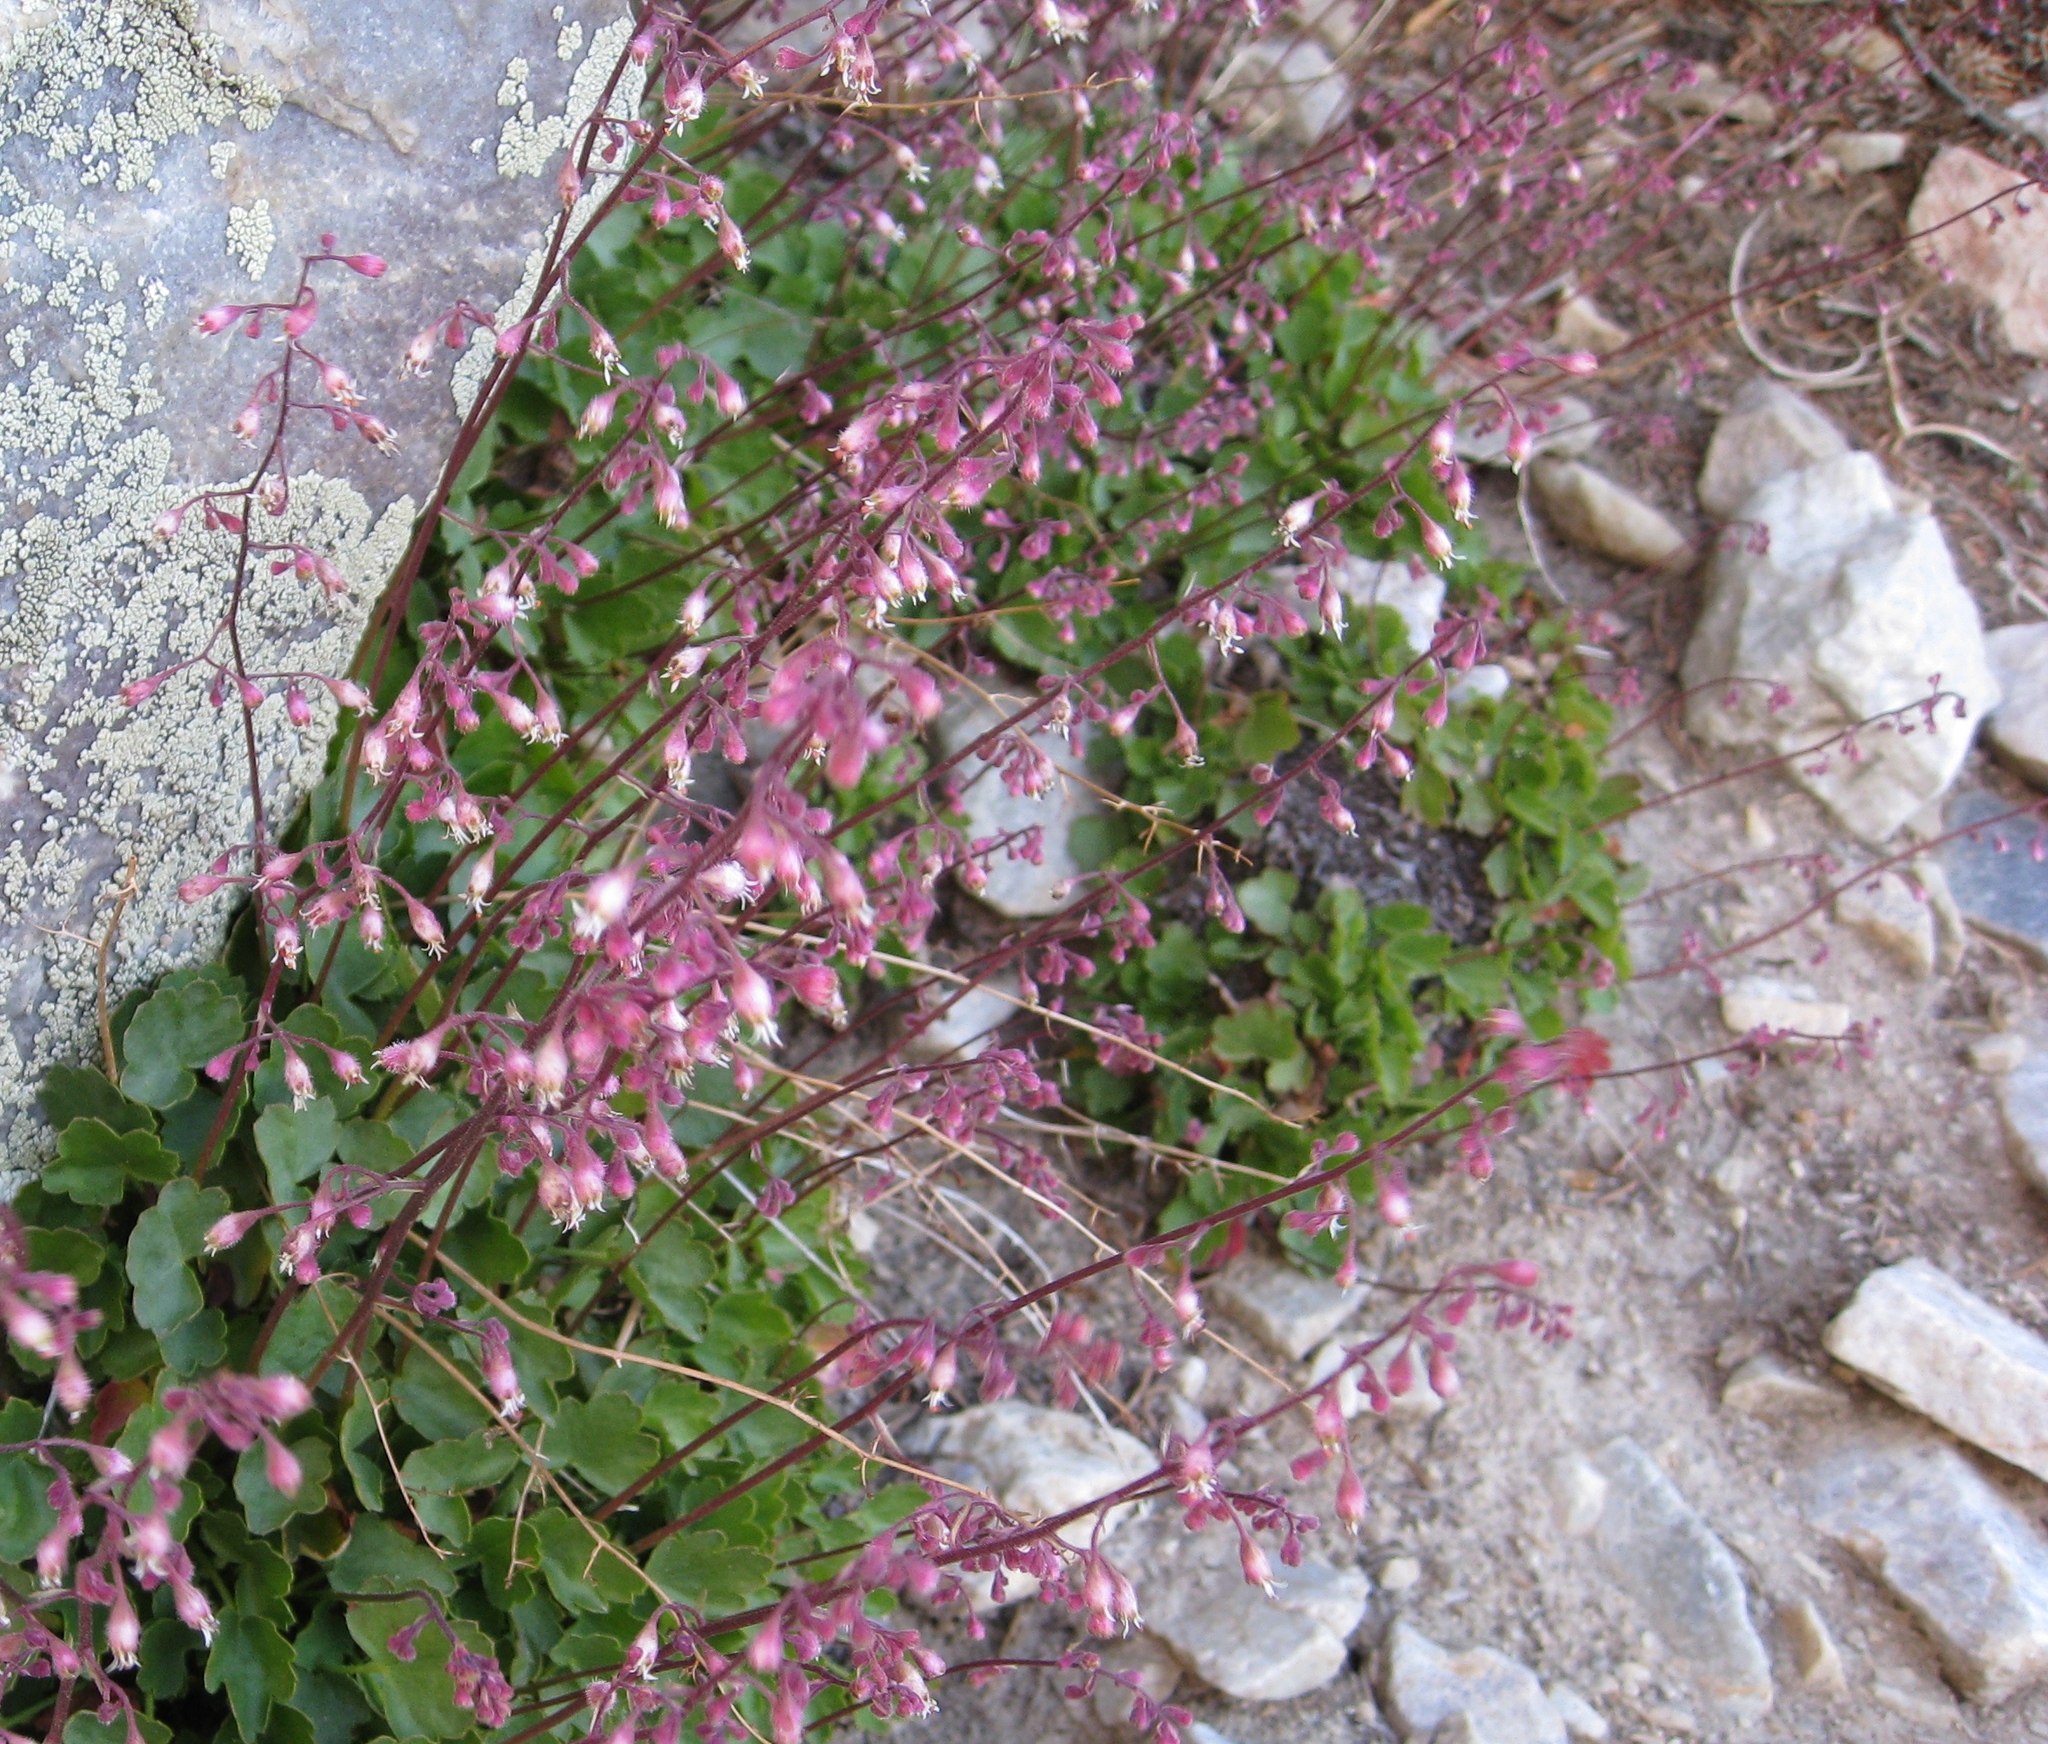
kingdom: Plantae
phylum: Tracheophyta
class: Magnoliopsida
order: Saxifragales
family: Saxifragaceae
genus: Heuchera
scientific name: Heuchera rubescens
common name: Jack-o'the-rocks
